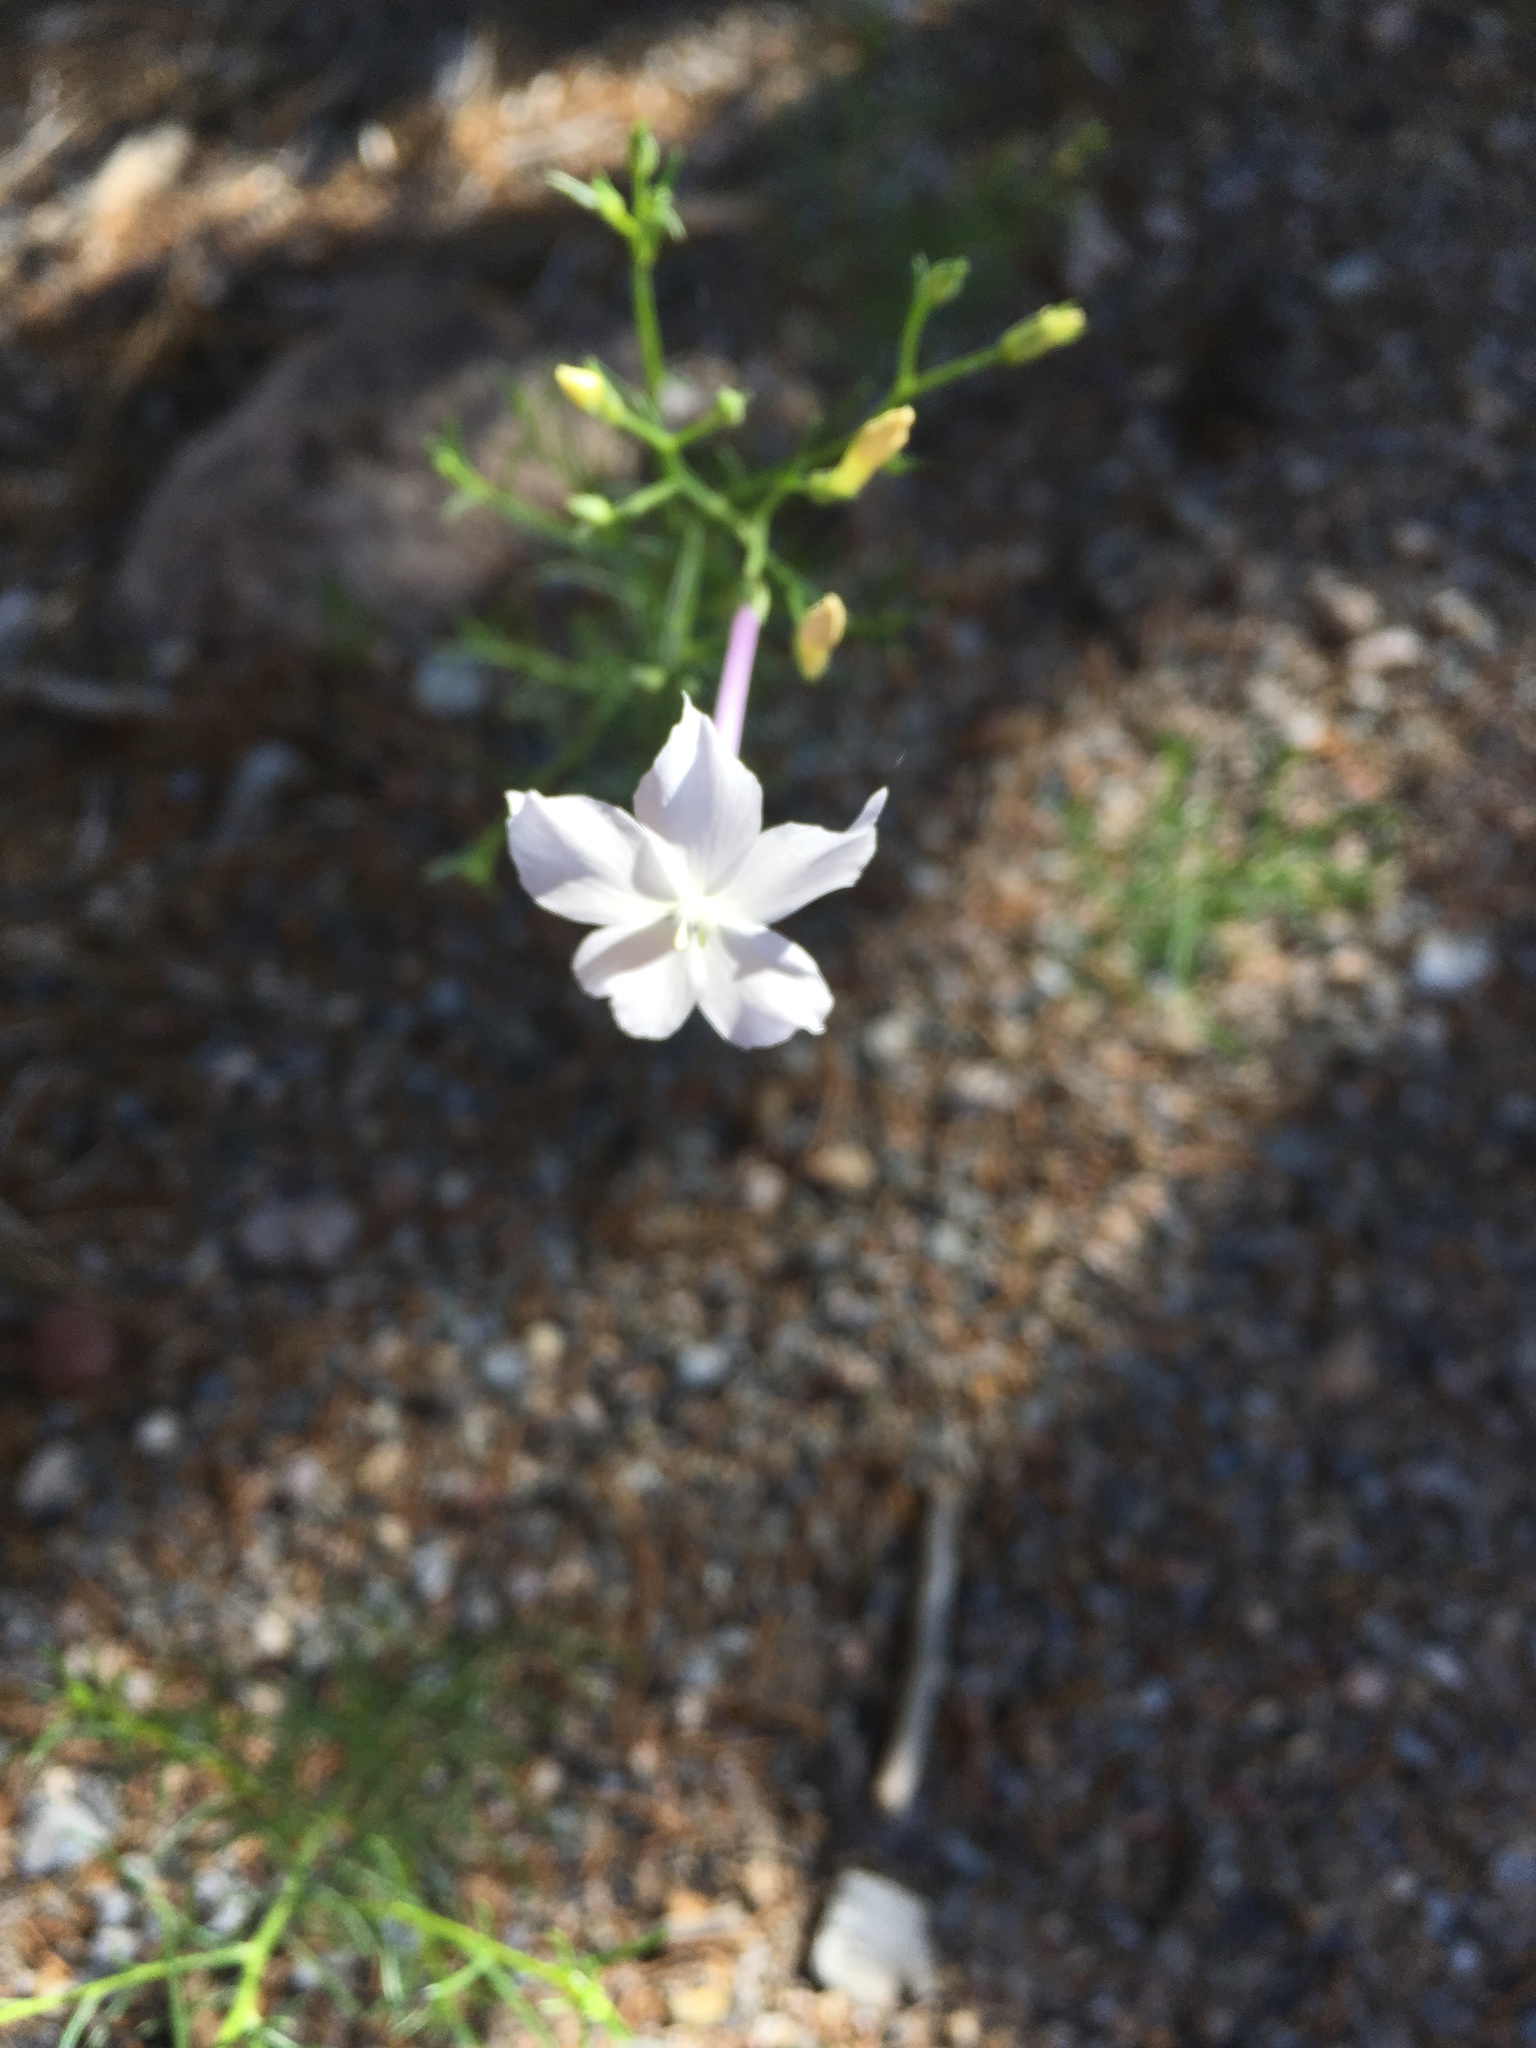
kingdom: Plantae
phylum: Tracheophyta
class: Magnoliopsida
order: Ericales
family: Polemoniaceae
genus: Ipomopsis
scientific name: Ipomopsis longiflora
